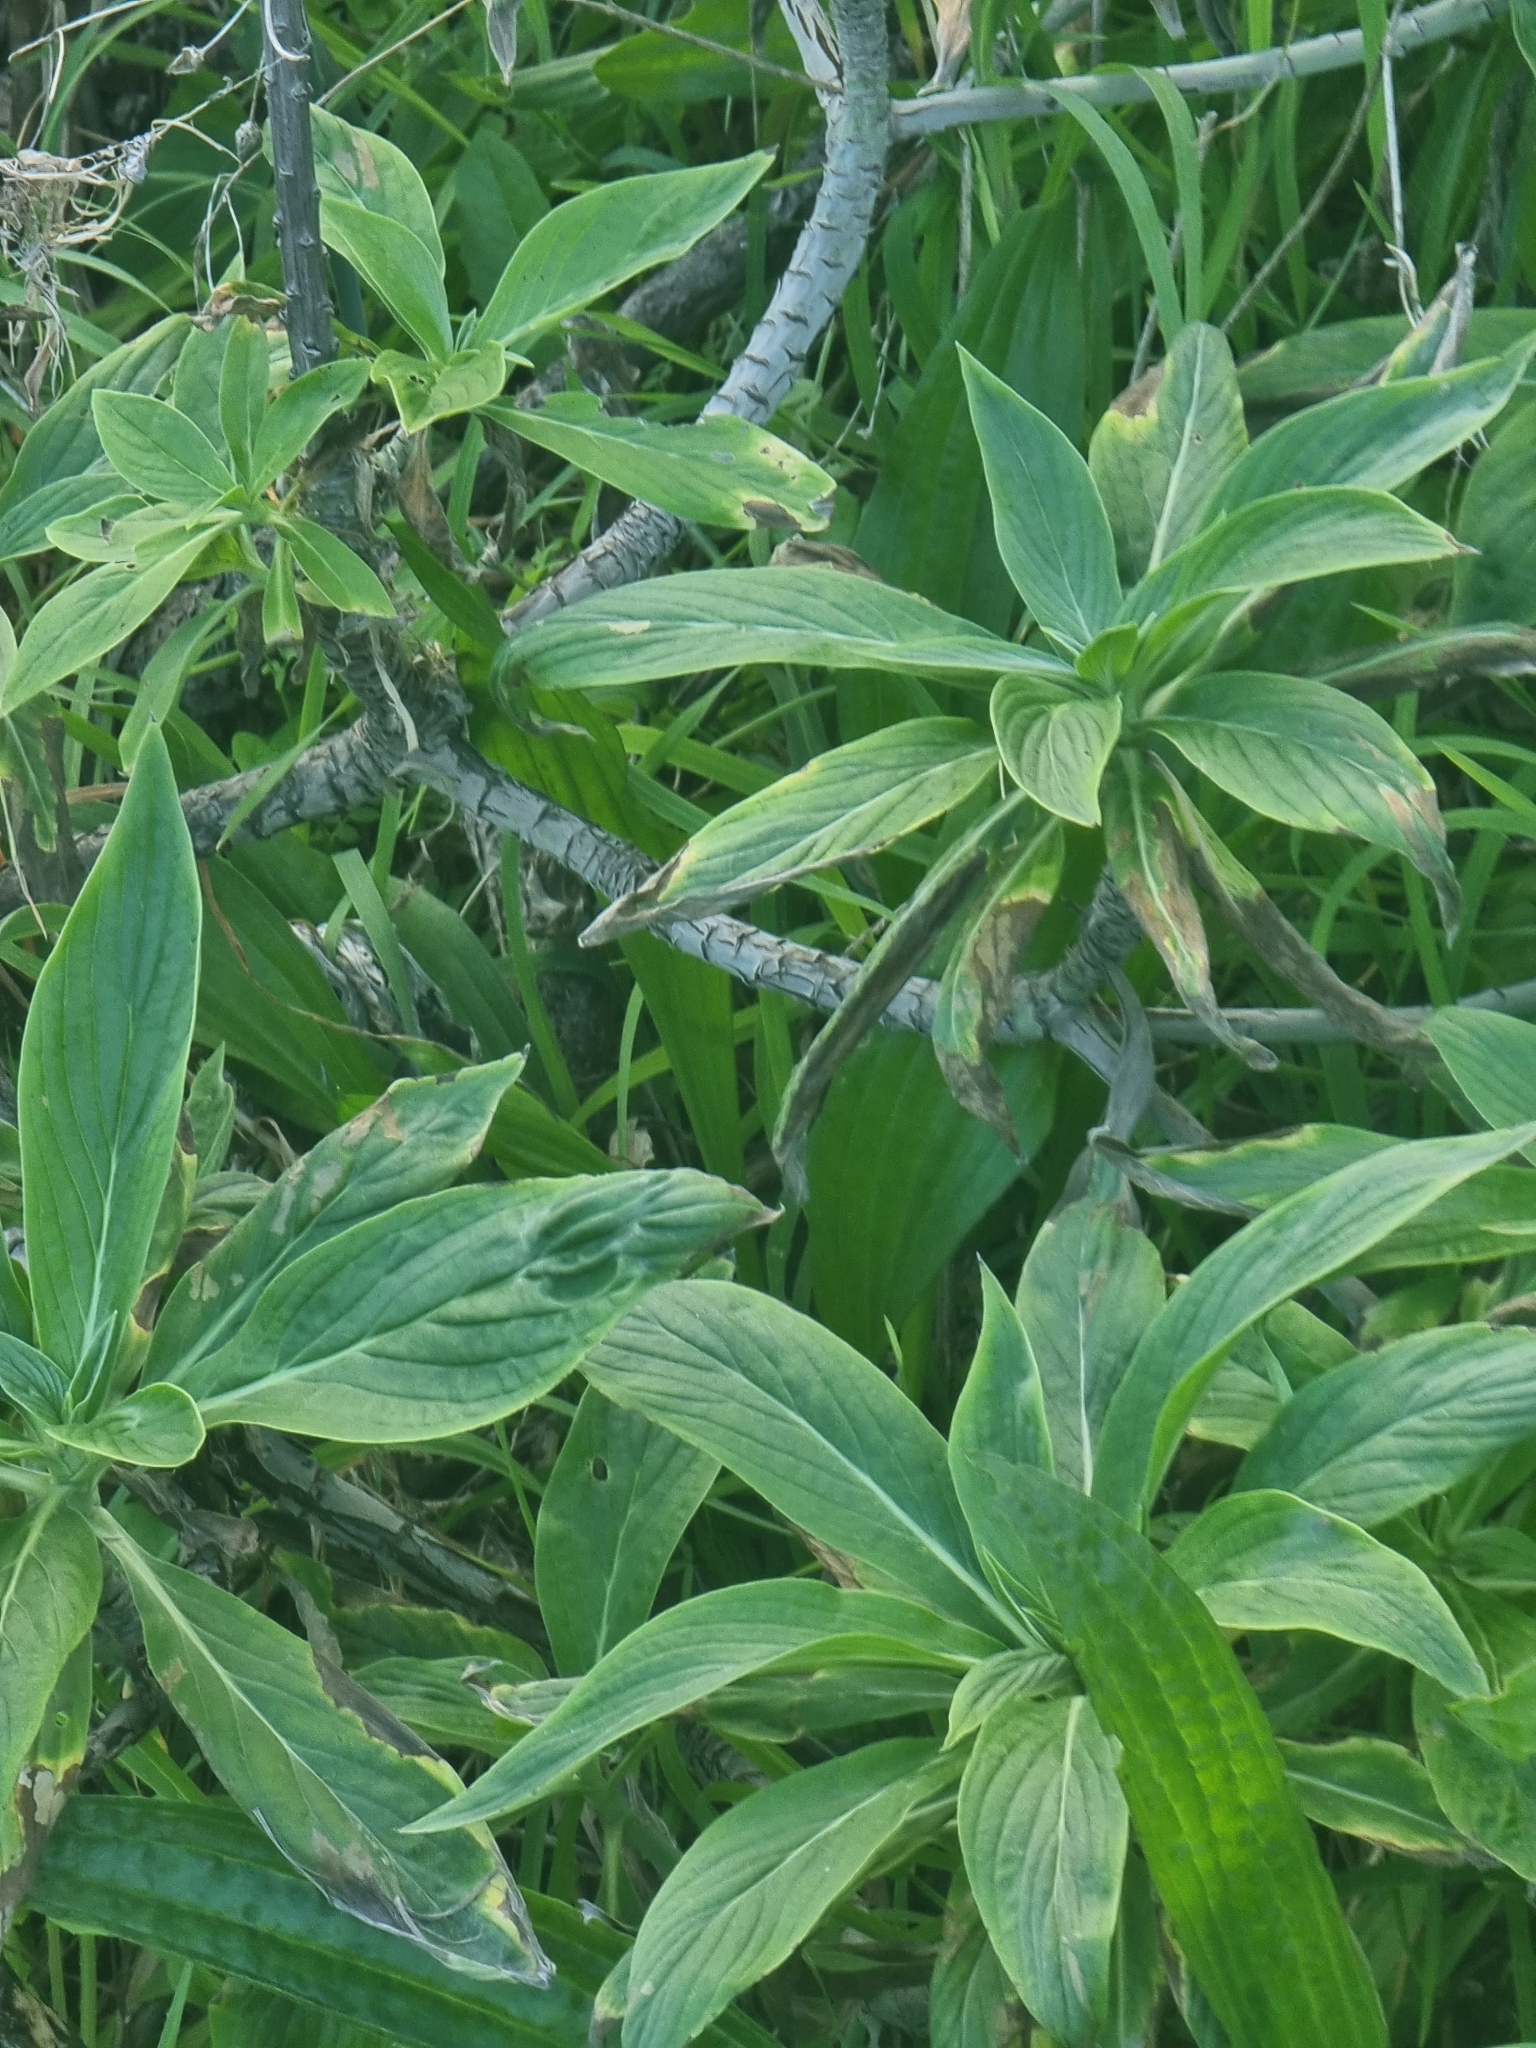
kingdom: Plantae
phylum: Tracheophyta
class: Magnoliopsida
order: Boraginales
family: Boraginaceae
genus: Echium
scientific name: Echium nervosum
